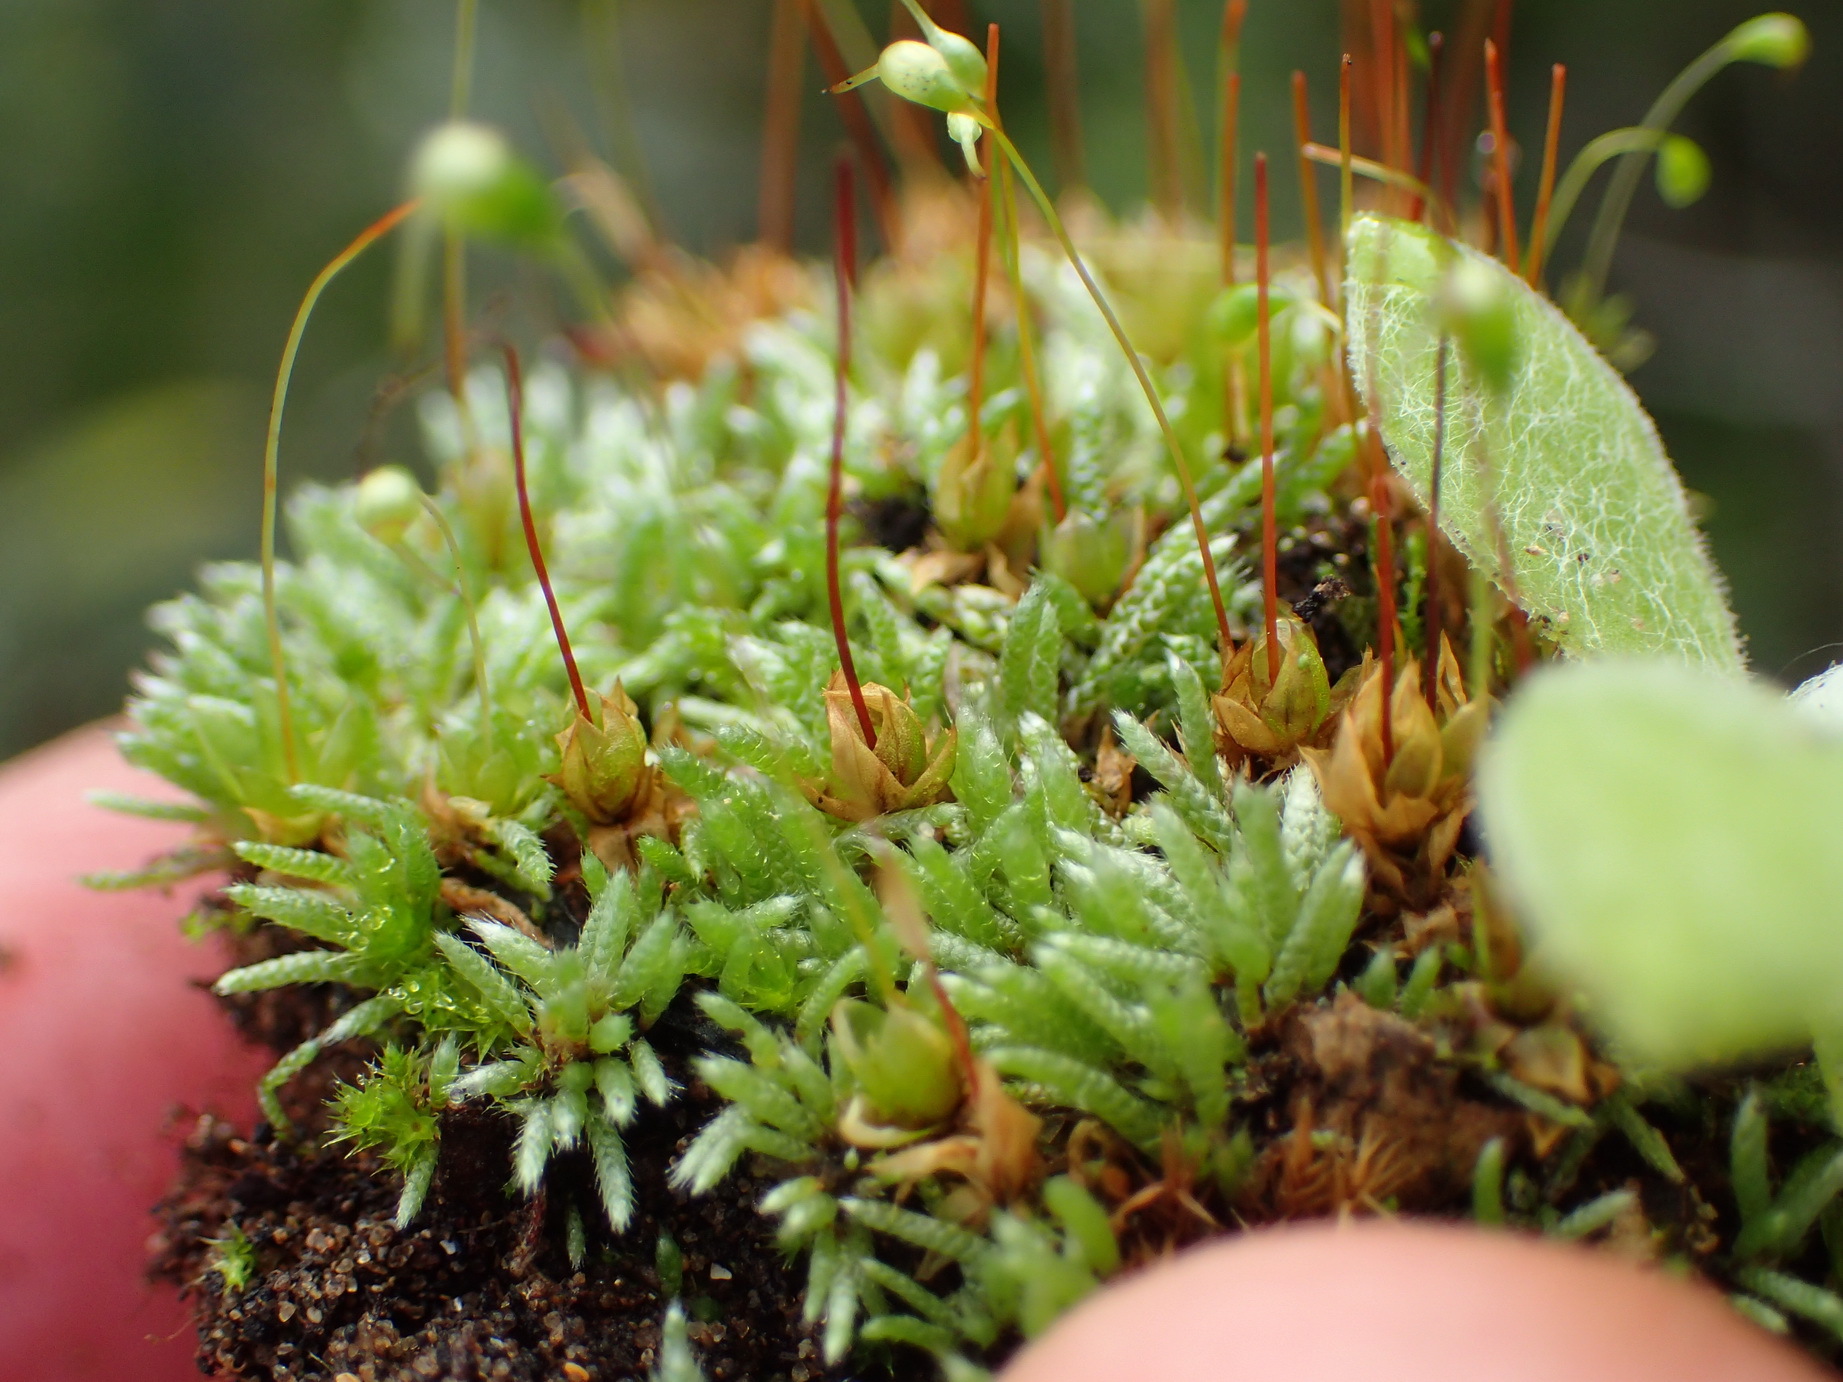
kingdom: Plantae
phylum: Bryophyta
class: Bryopsida
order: Funariales
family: Funariaceae
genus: Funaria
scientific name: Funaria hygrometrica
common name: Common cord moss
